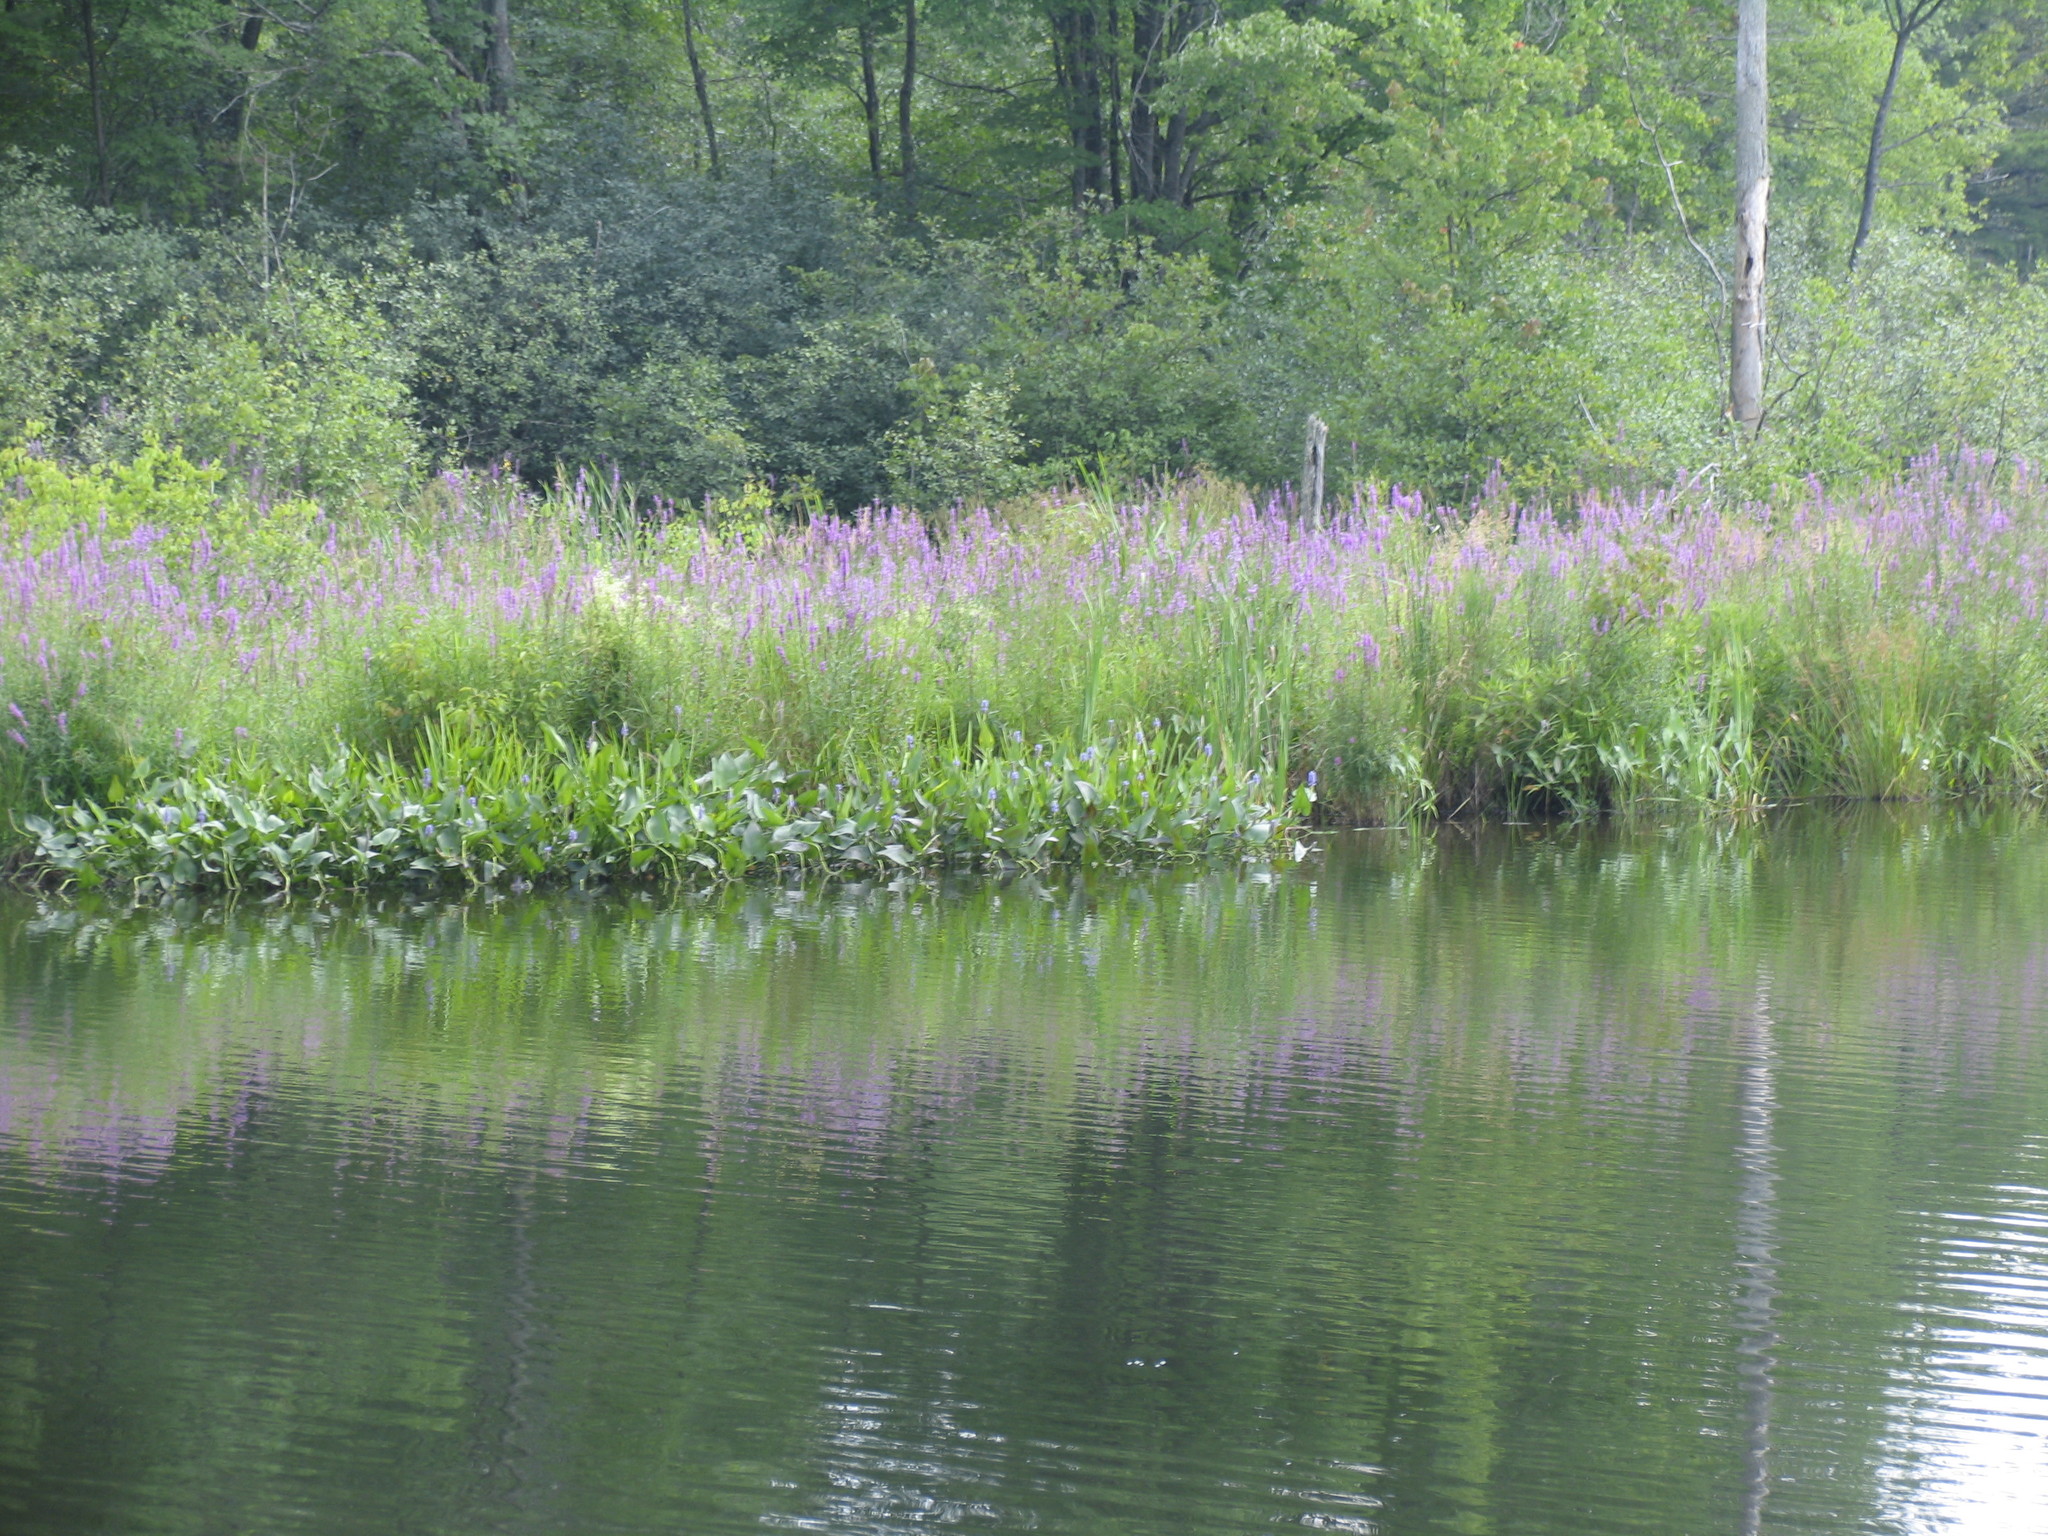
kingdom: Plantae
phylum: Tracheophyta
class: Liliopsida
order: Commelinales
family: Pontederiaceae
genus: Pontederia
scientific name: Pontederia cordata
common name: Pickerelweed
